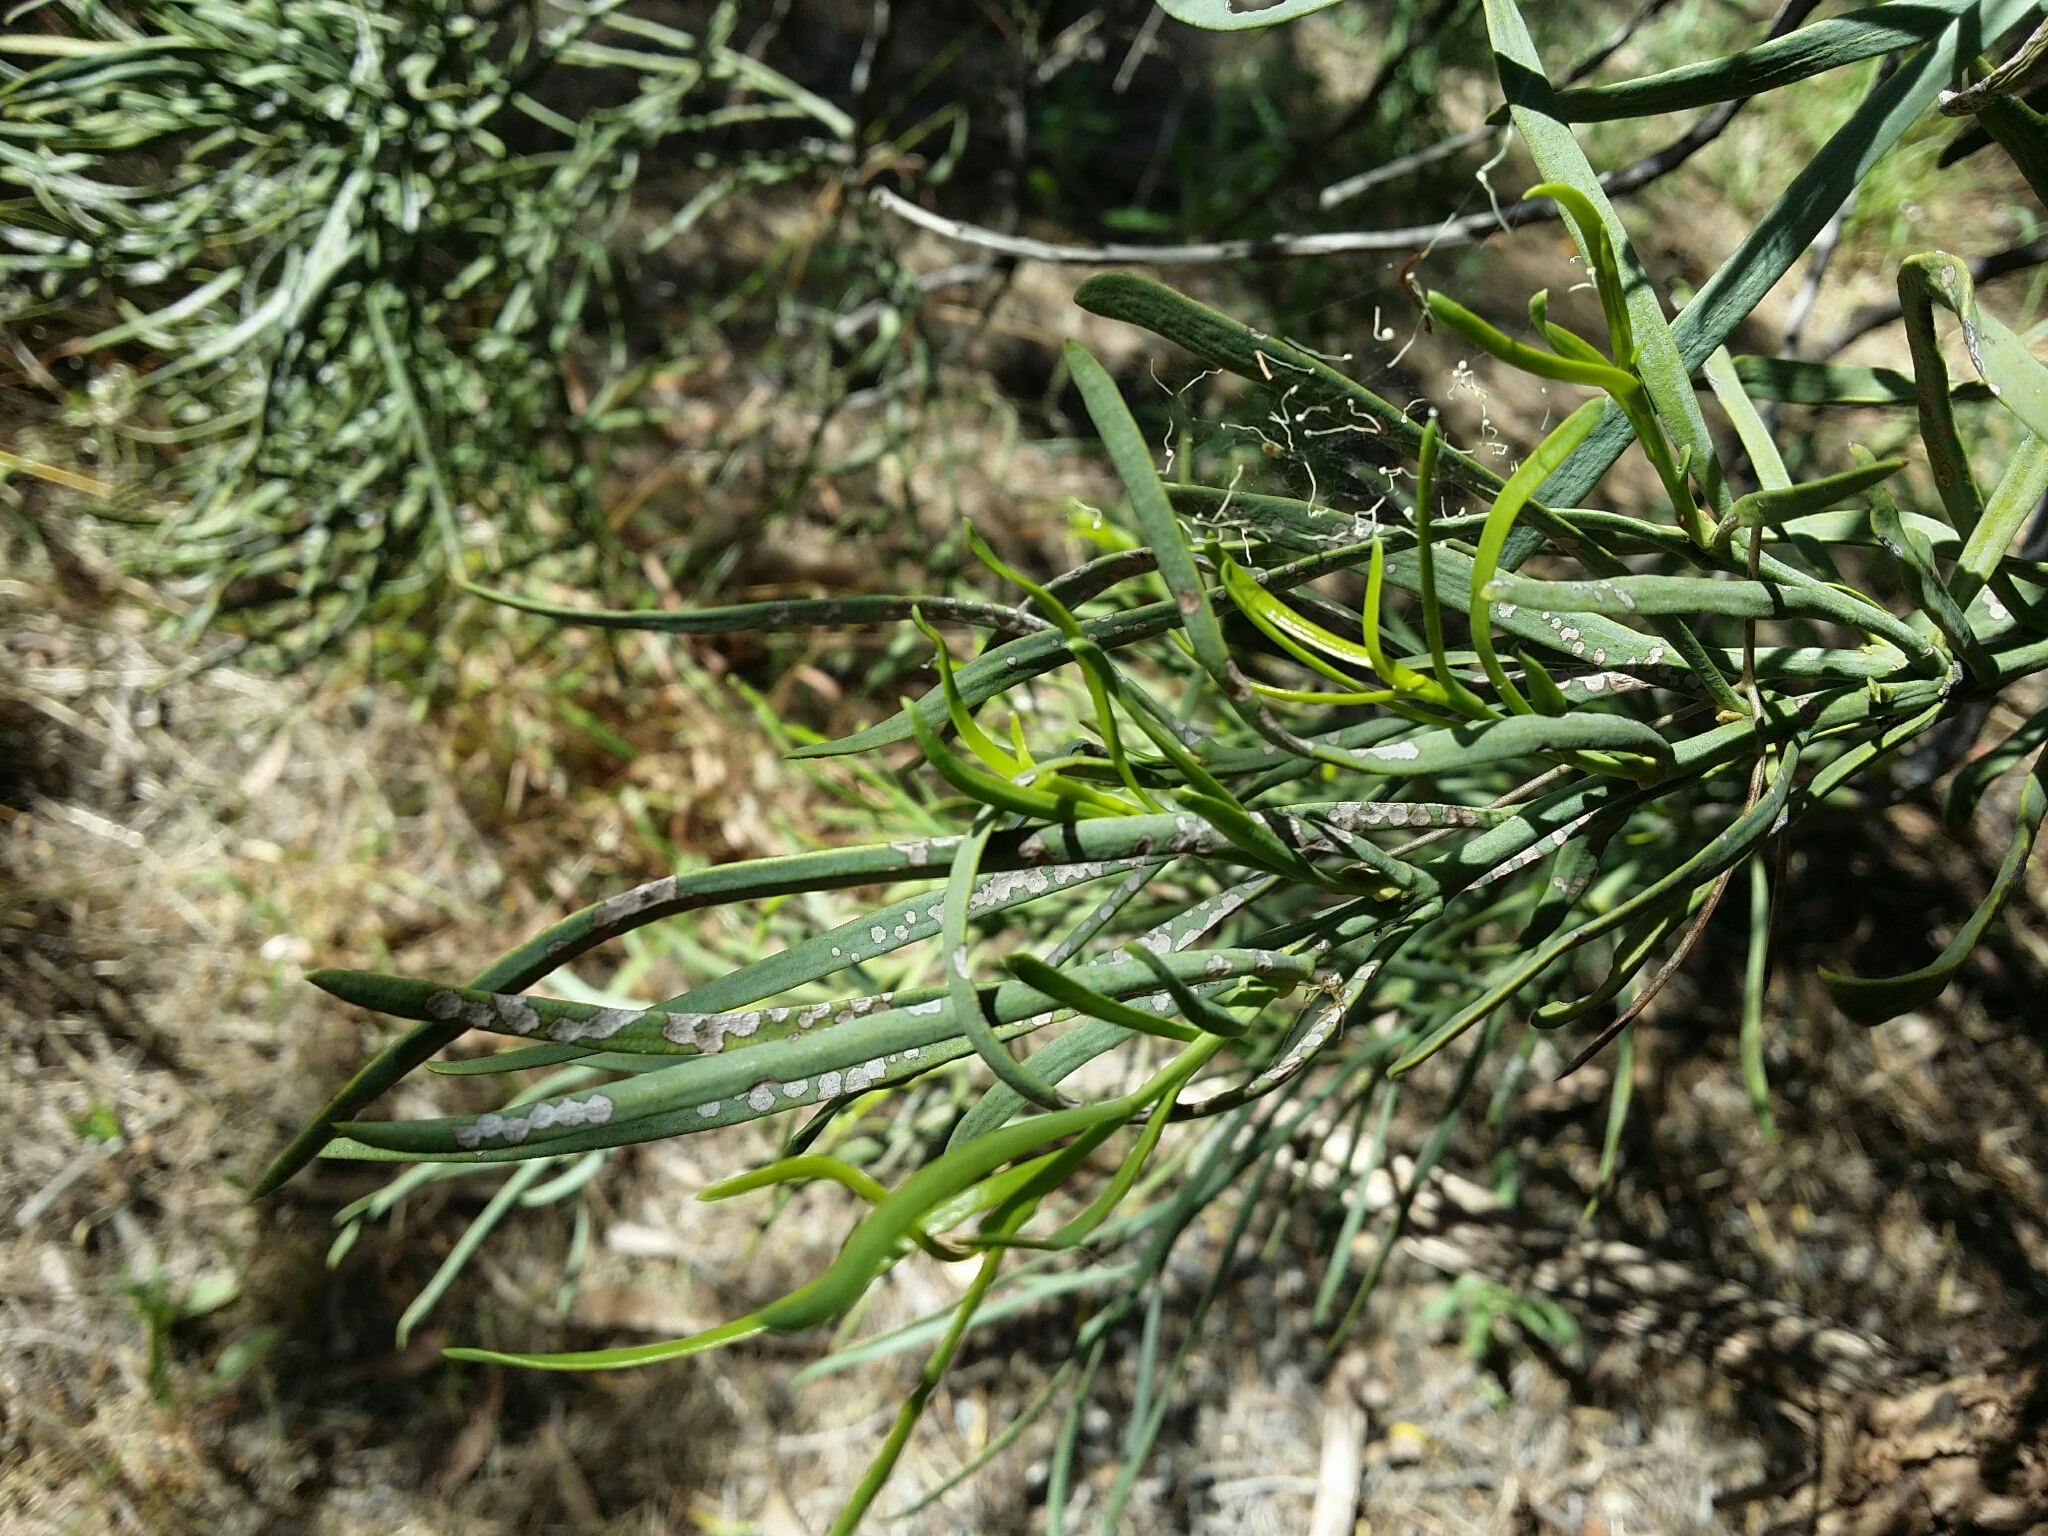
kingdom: Plantae
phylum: Tracheophyta
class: Magnoliopsida
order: Santalales
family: Loranthaceae
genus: Nuytsia
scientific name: Nuytsia floribunda
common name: Western australian christmastree
